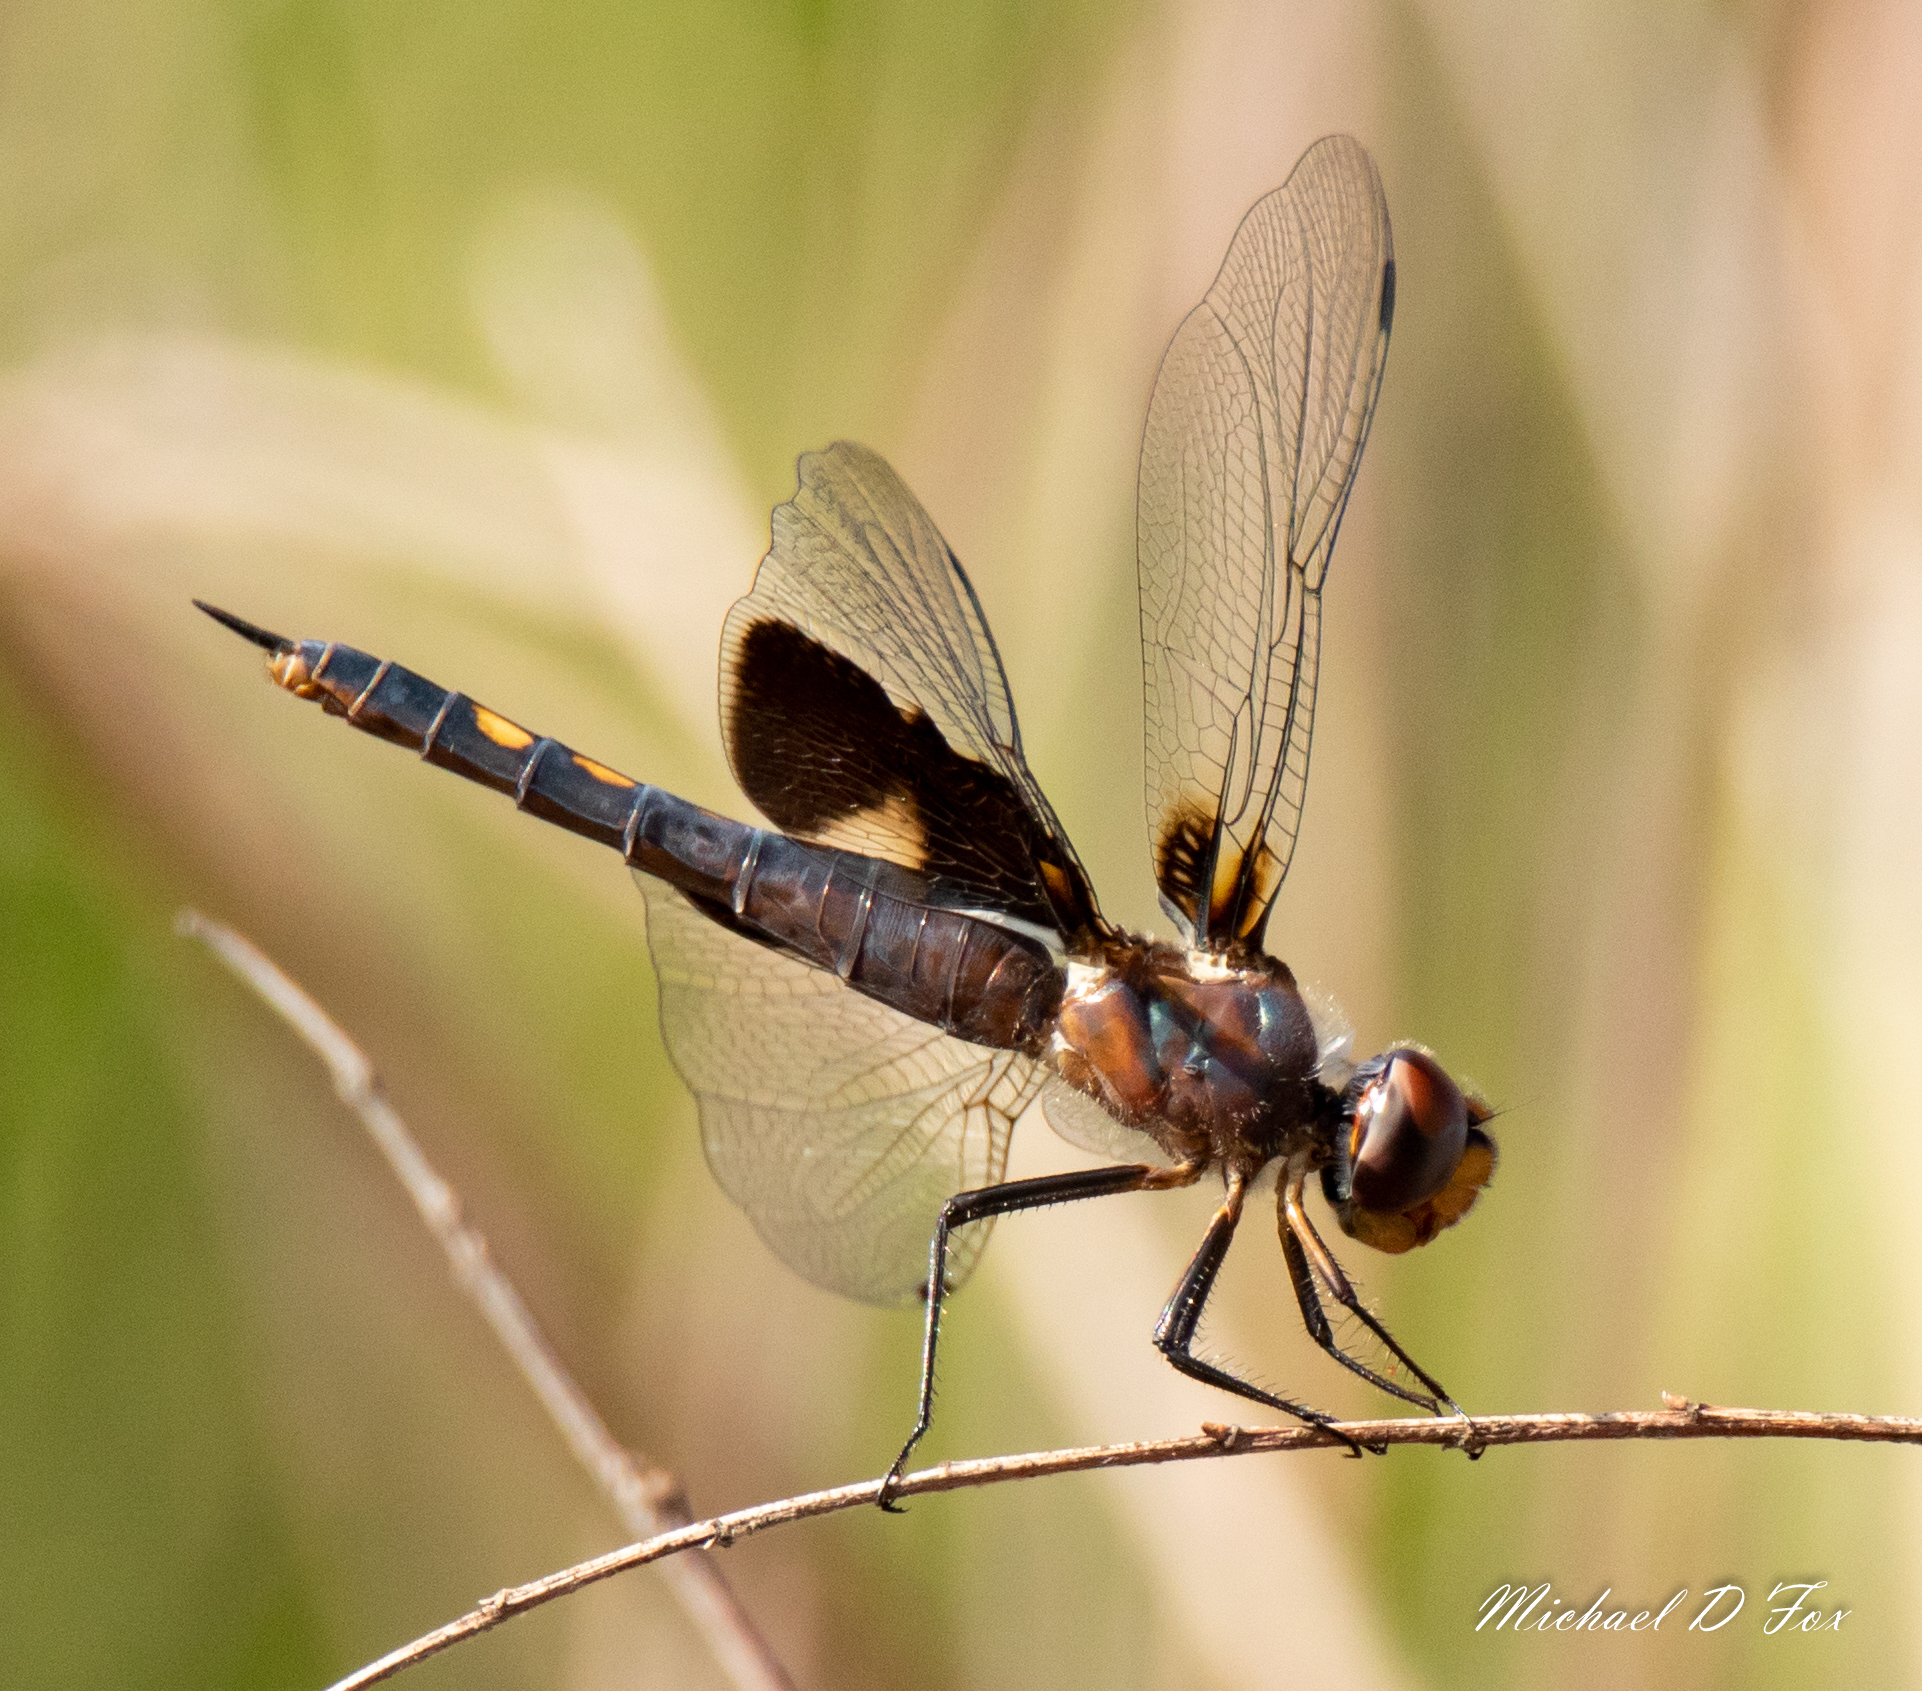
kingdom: Animalia
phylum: Arthropoda
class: Insecta
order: Odonata
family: Libellulidae
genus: Tramea
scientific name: Tramea lacerata
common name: Black saddlebags
